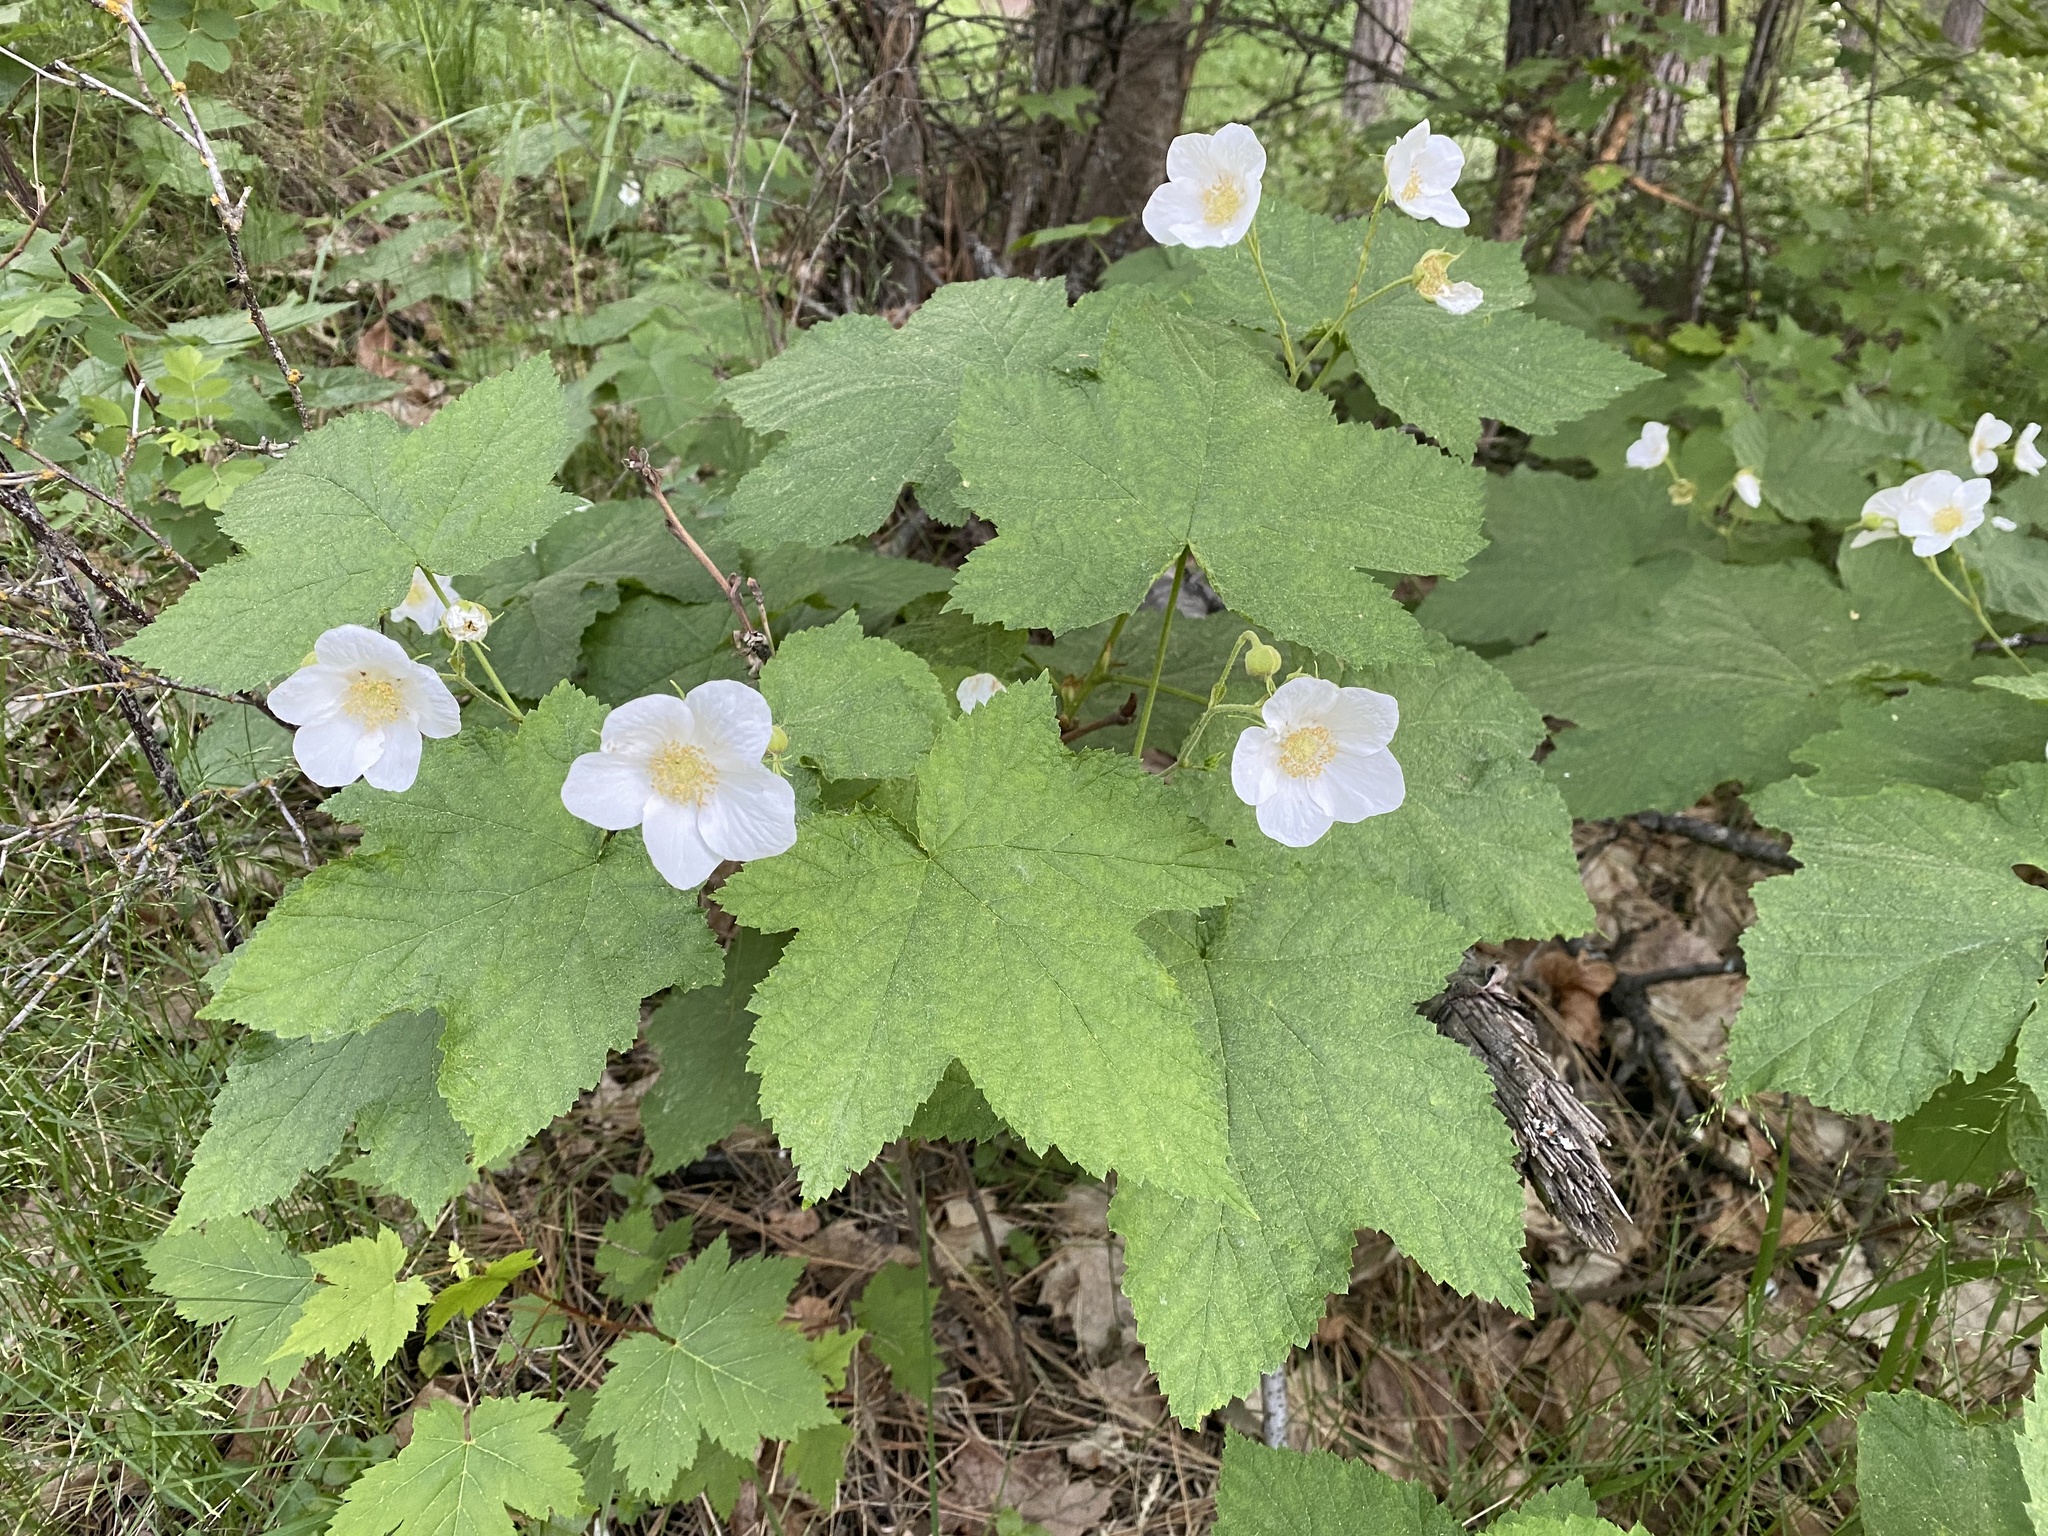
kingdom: Plantae
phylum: Tracheophyta
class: Magnoliopsida
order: Rosales
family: Rosaceae
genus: Rubus
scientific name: Rubus parviflorus
